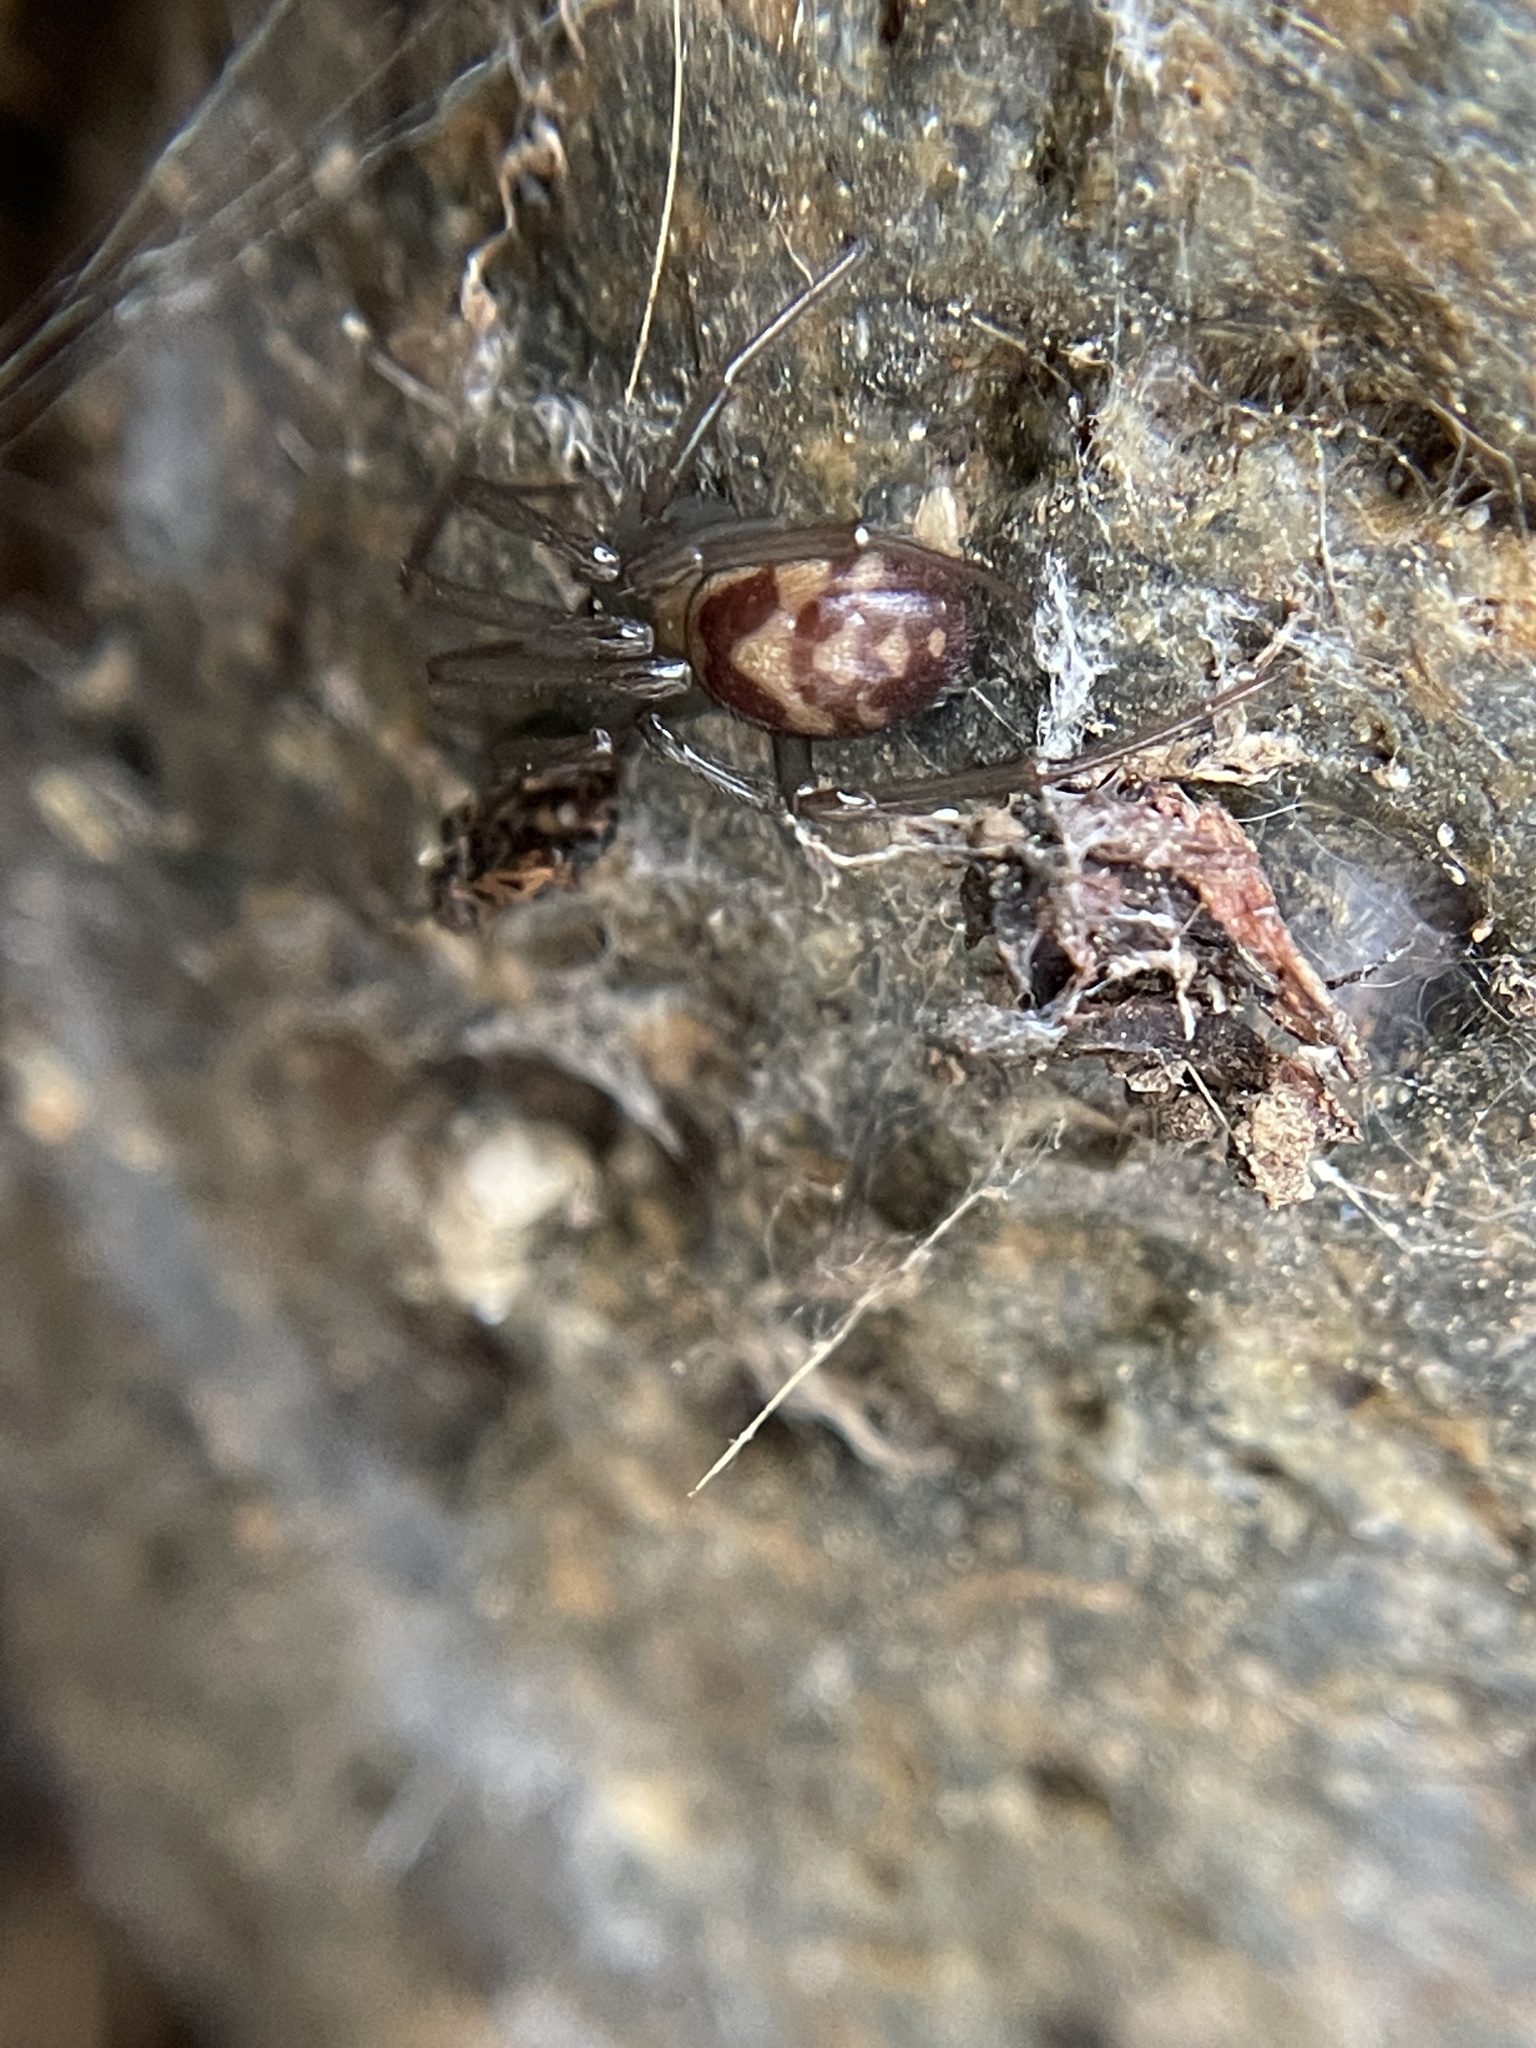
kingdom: Animalia
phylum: Arthropoda
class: Arachnida
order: Araneae
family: Theridiidae
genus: Steatoda
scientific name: Steatoda grossa
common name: False black widow
